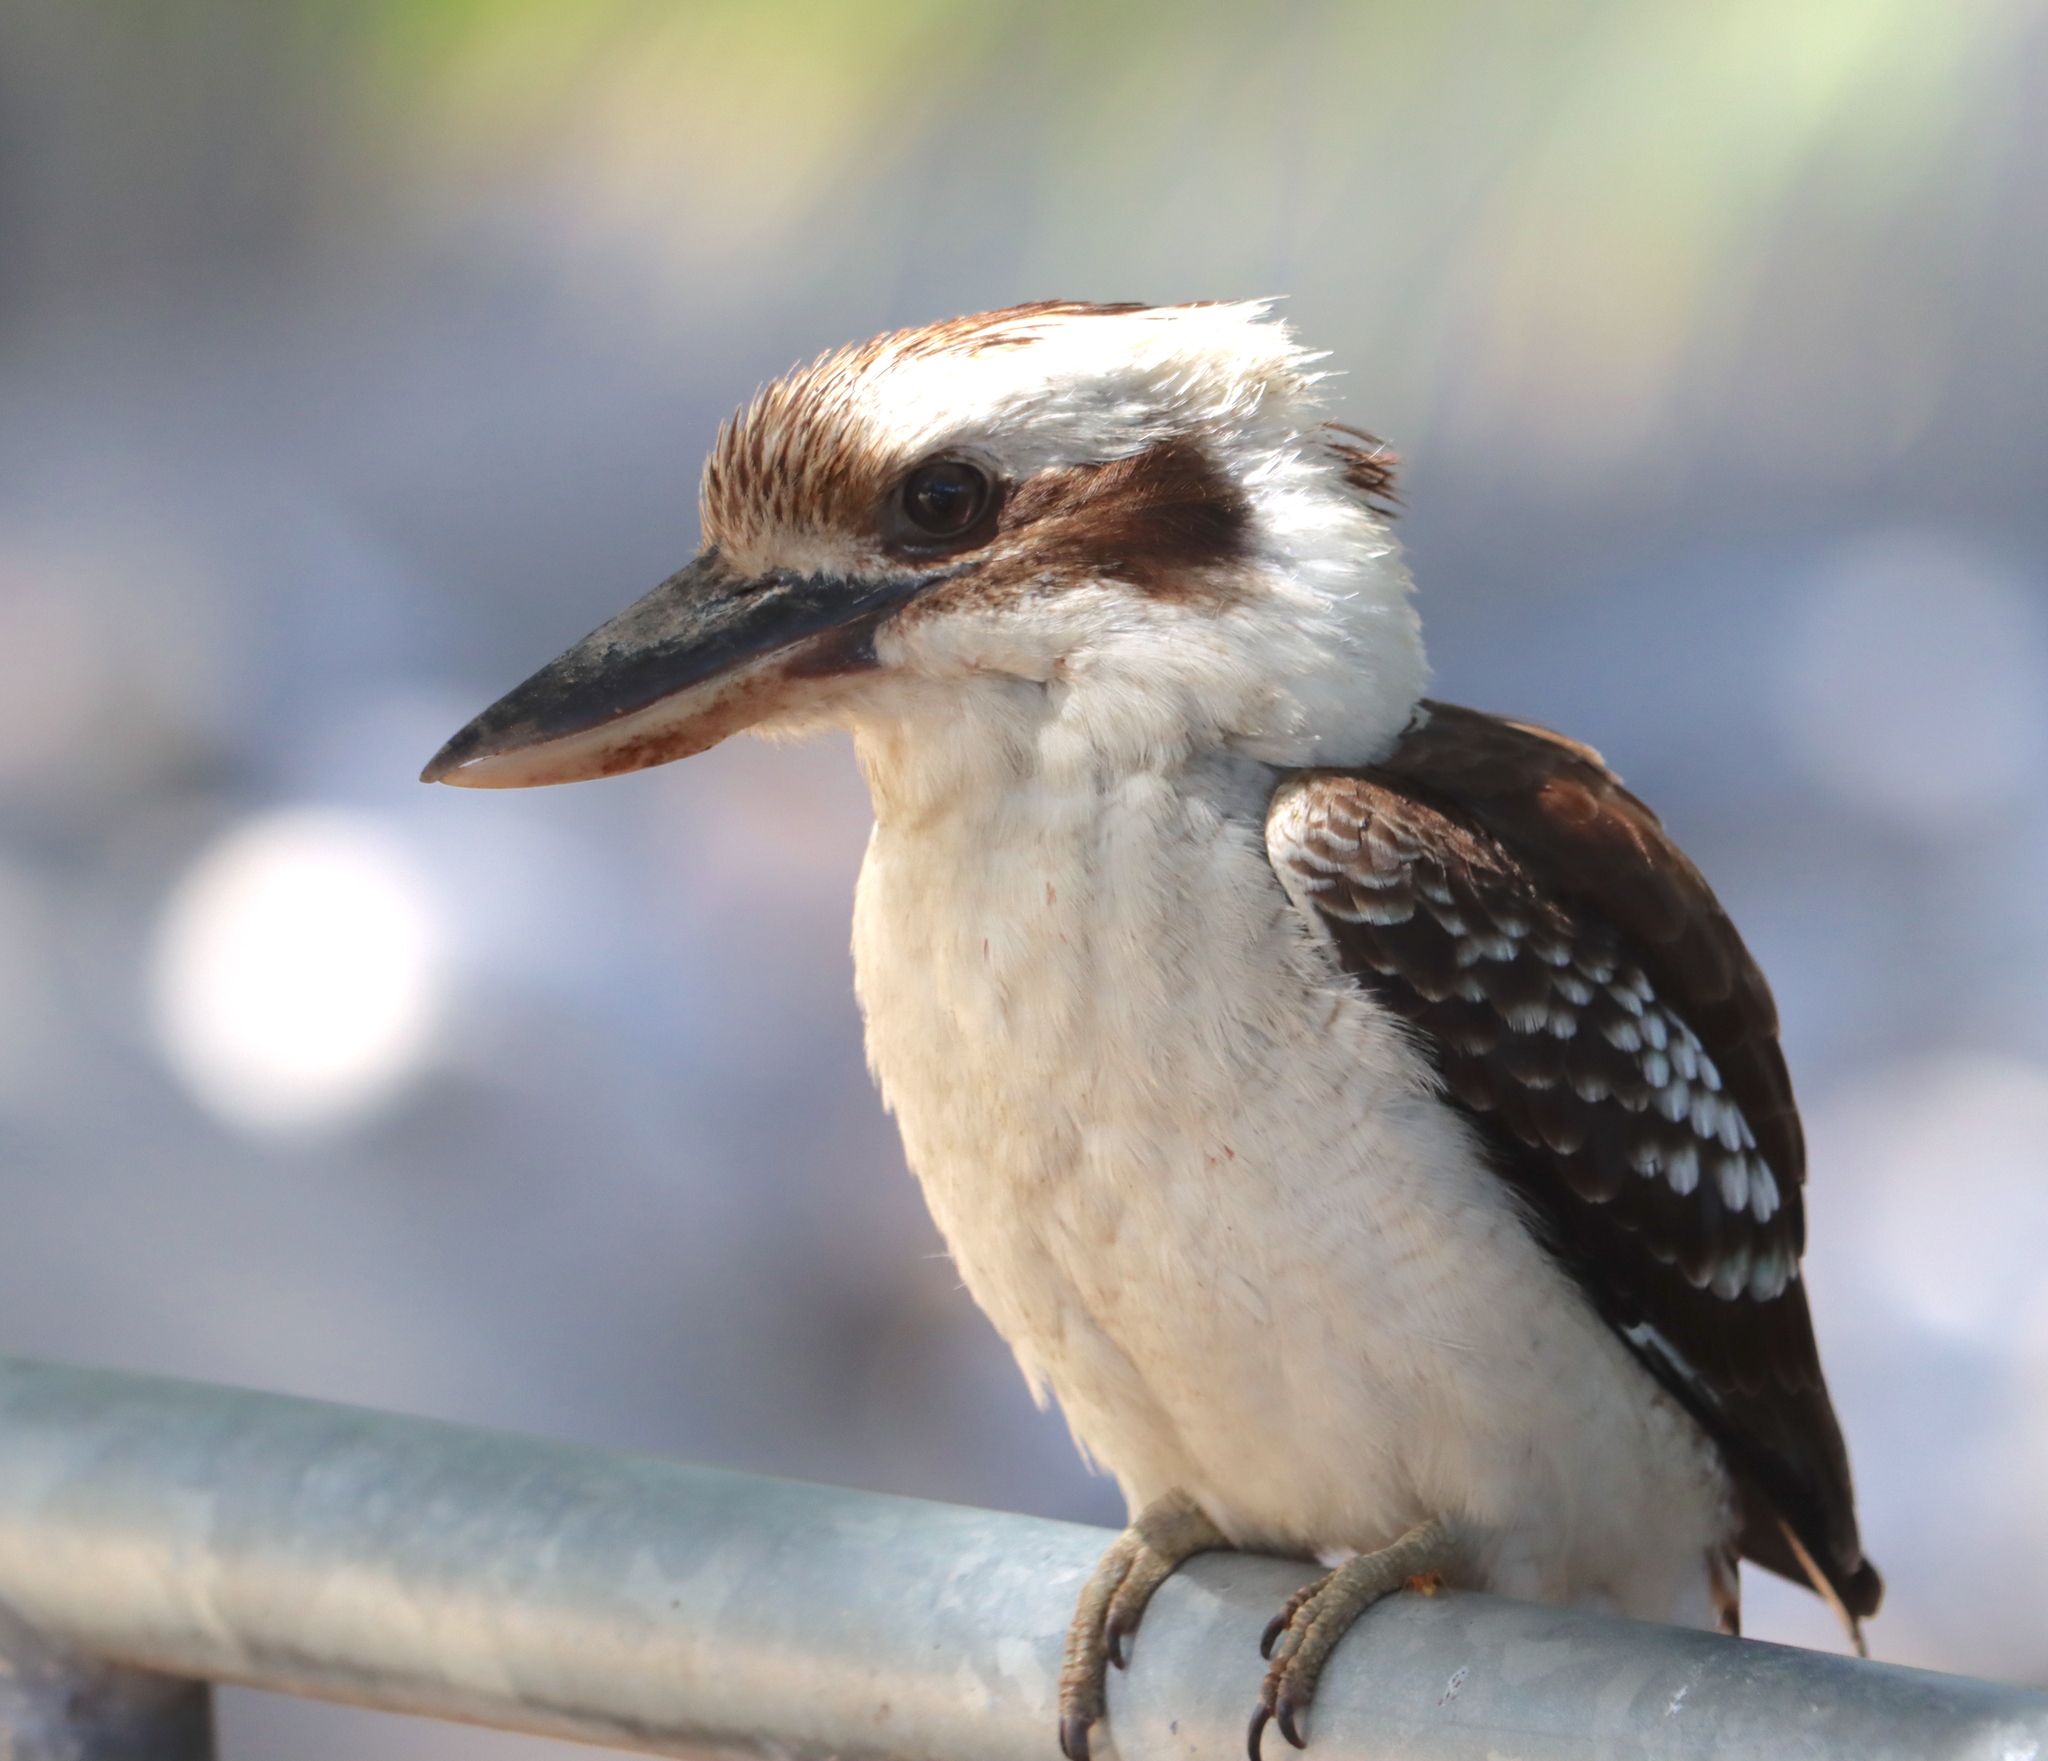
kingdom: Animalia
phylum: Chordata
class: Aves
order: Coraciiformes
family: Alcedinidae
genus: Dacelo
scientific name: Dacelo novaeguineae
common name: Laughing kookaburra
